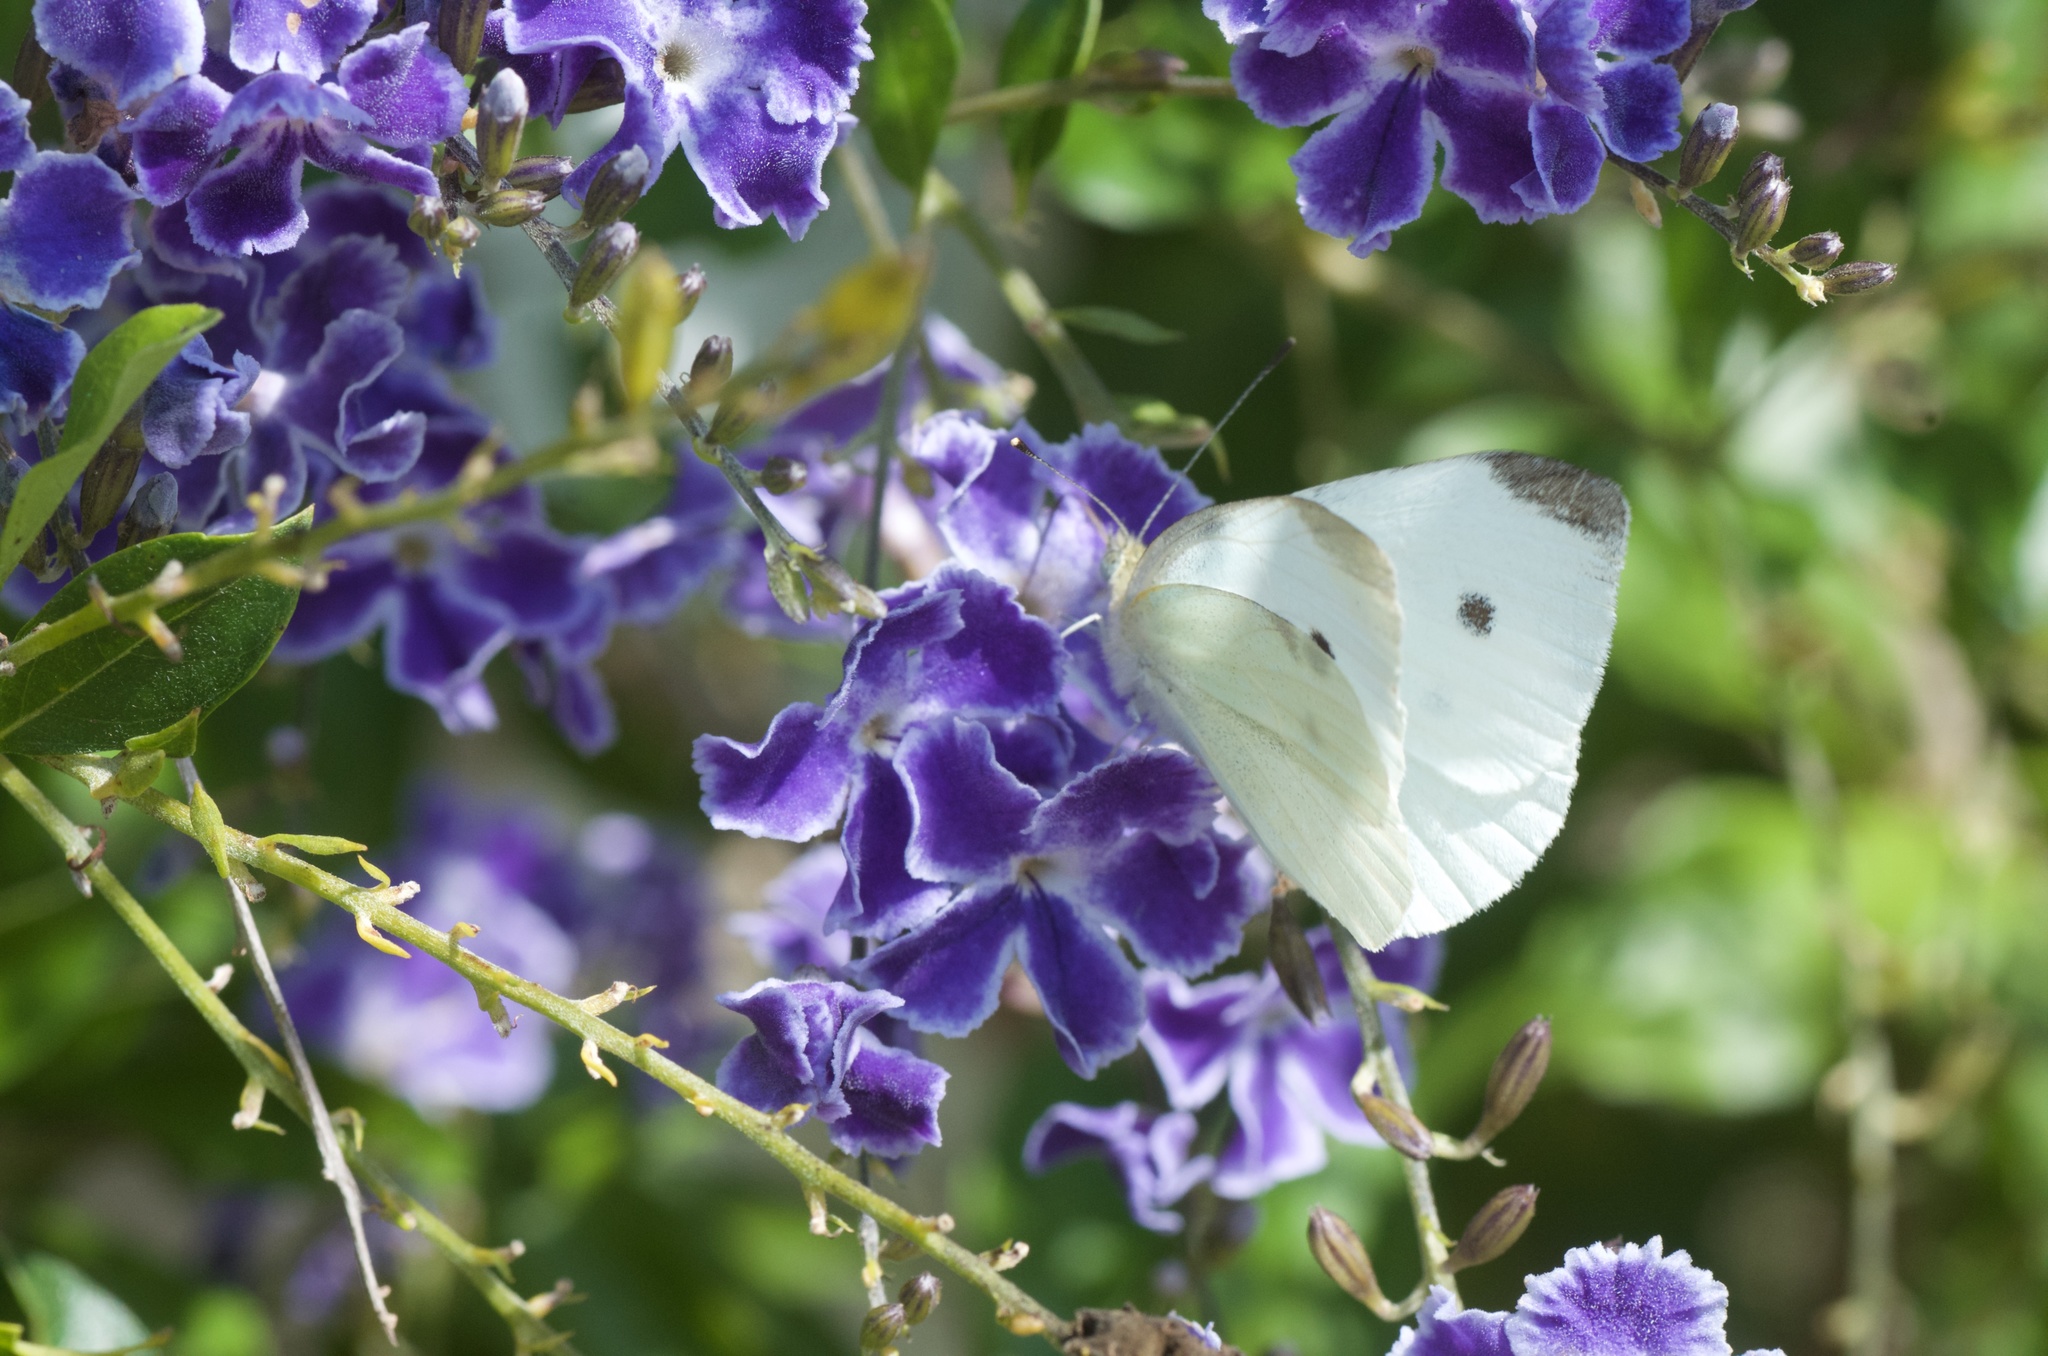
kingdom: Animalia
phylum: Arthropoda
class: Insecta
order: Lepidoptera
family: Pieridae
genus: Pieris
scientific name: Pieris rapae
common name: Small white
